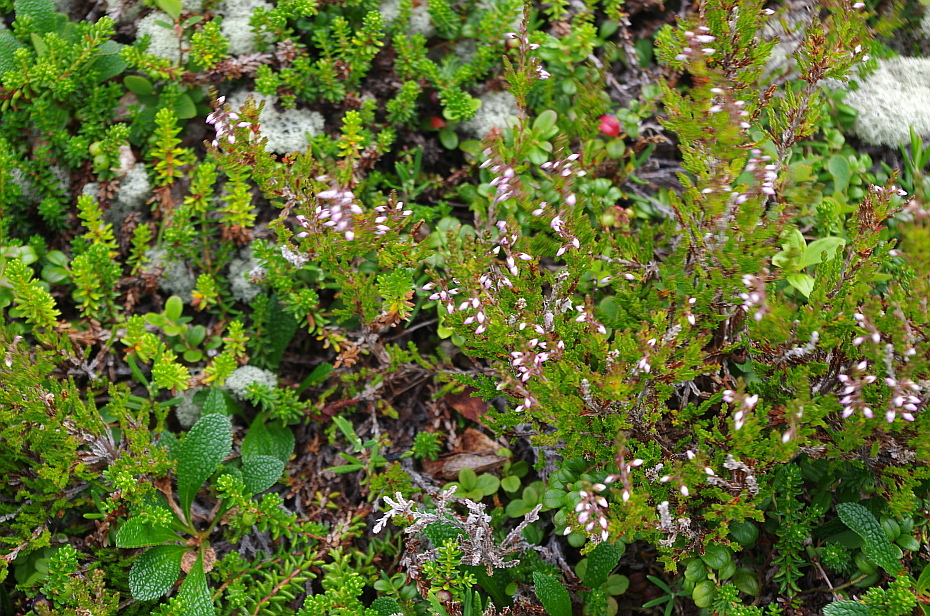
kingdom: Plantae
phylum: Tracheophyta
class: Magnoliopsida
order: Ericales
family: Ericaceae
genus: Calluna
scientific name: Calluna vulgaris
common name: Heather
